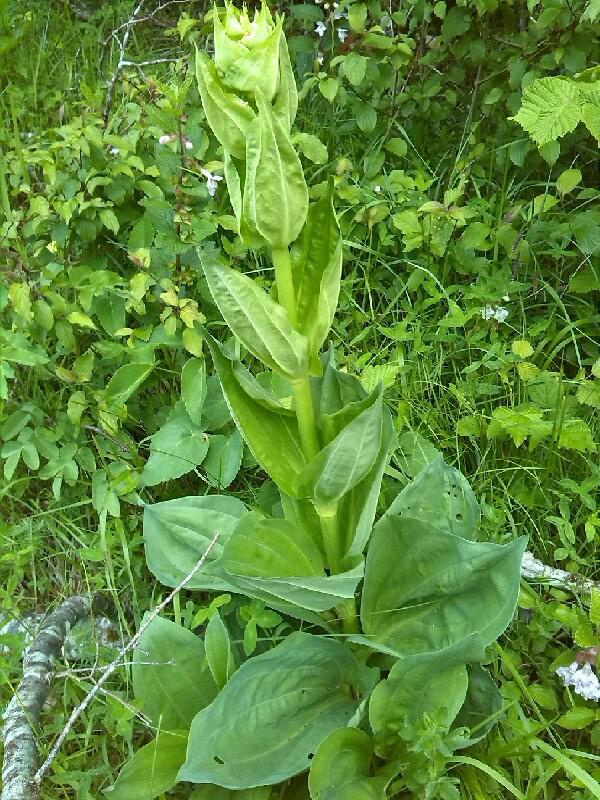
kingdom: Plantae
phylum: Tracheophyta
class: Magnoliopsida
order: Gentianales
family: Gentianaceae
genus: Gentiana
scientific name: Gentiana lutea
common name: Great yellow gentian
